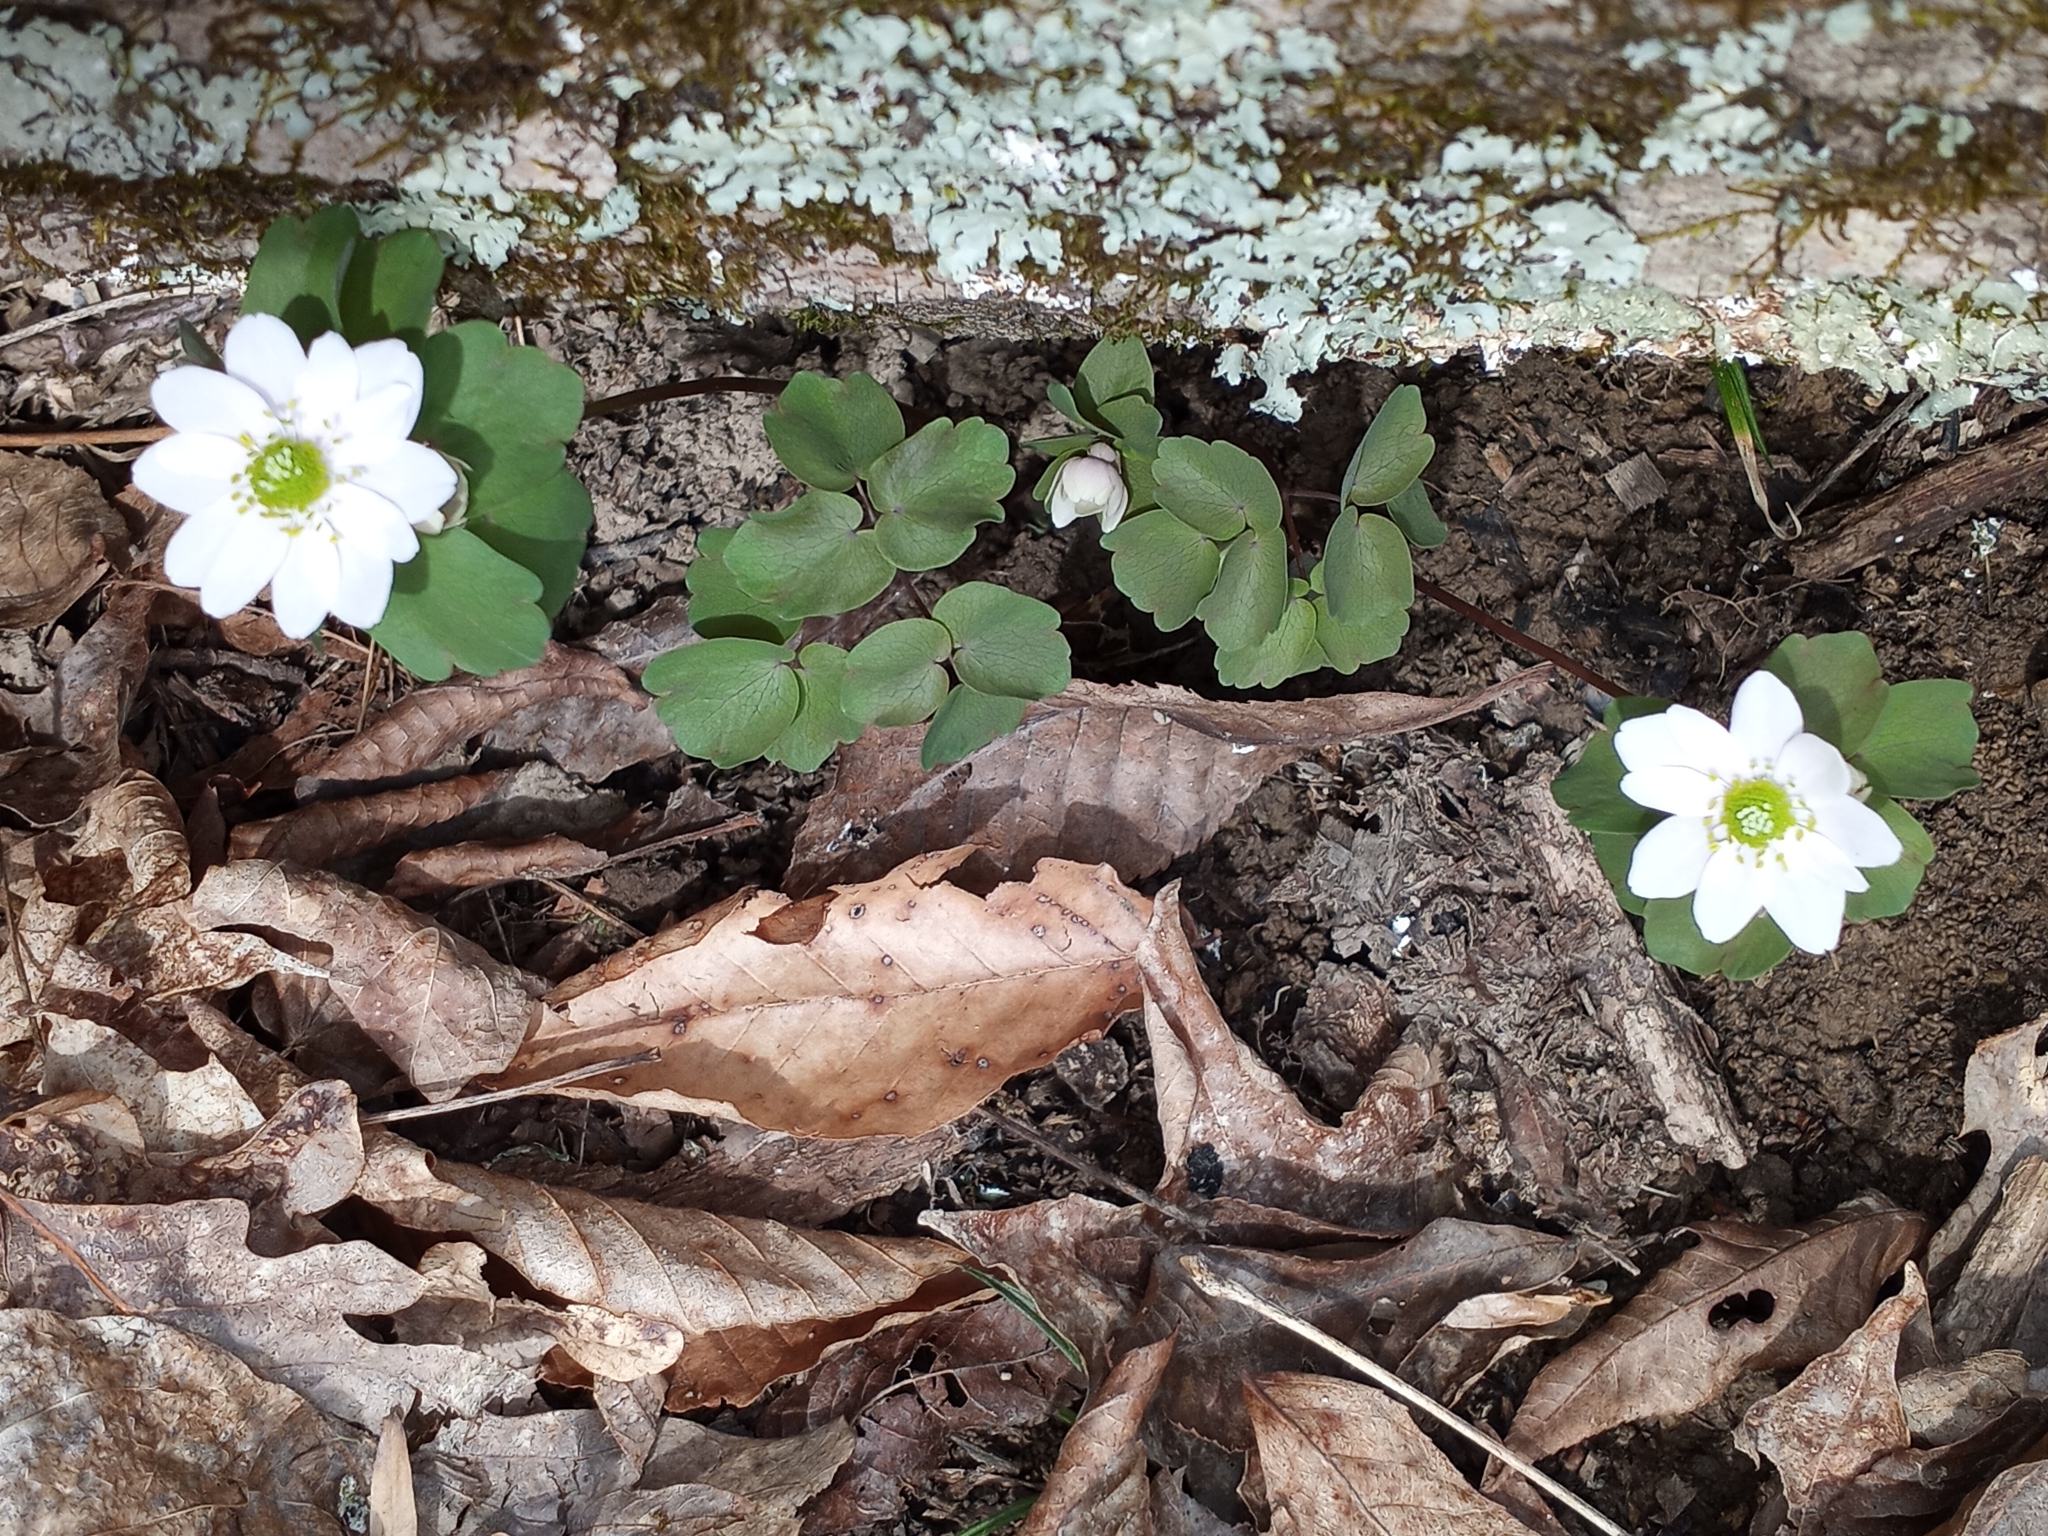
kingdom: Plantae
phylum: Tracheophyta
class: Magnoliopsida
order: Ranunculales
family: Ranunculaceae
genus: Thalictrum
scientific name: Thalictrum thalictroides
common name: Rue-anemone
